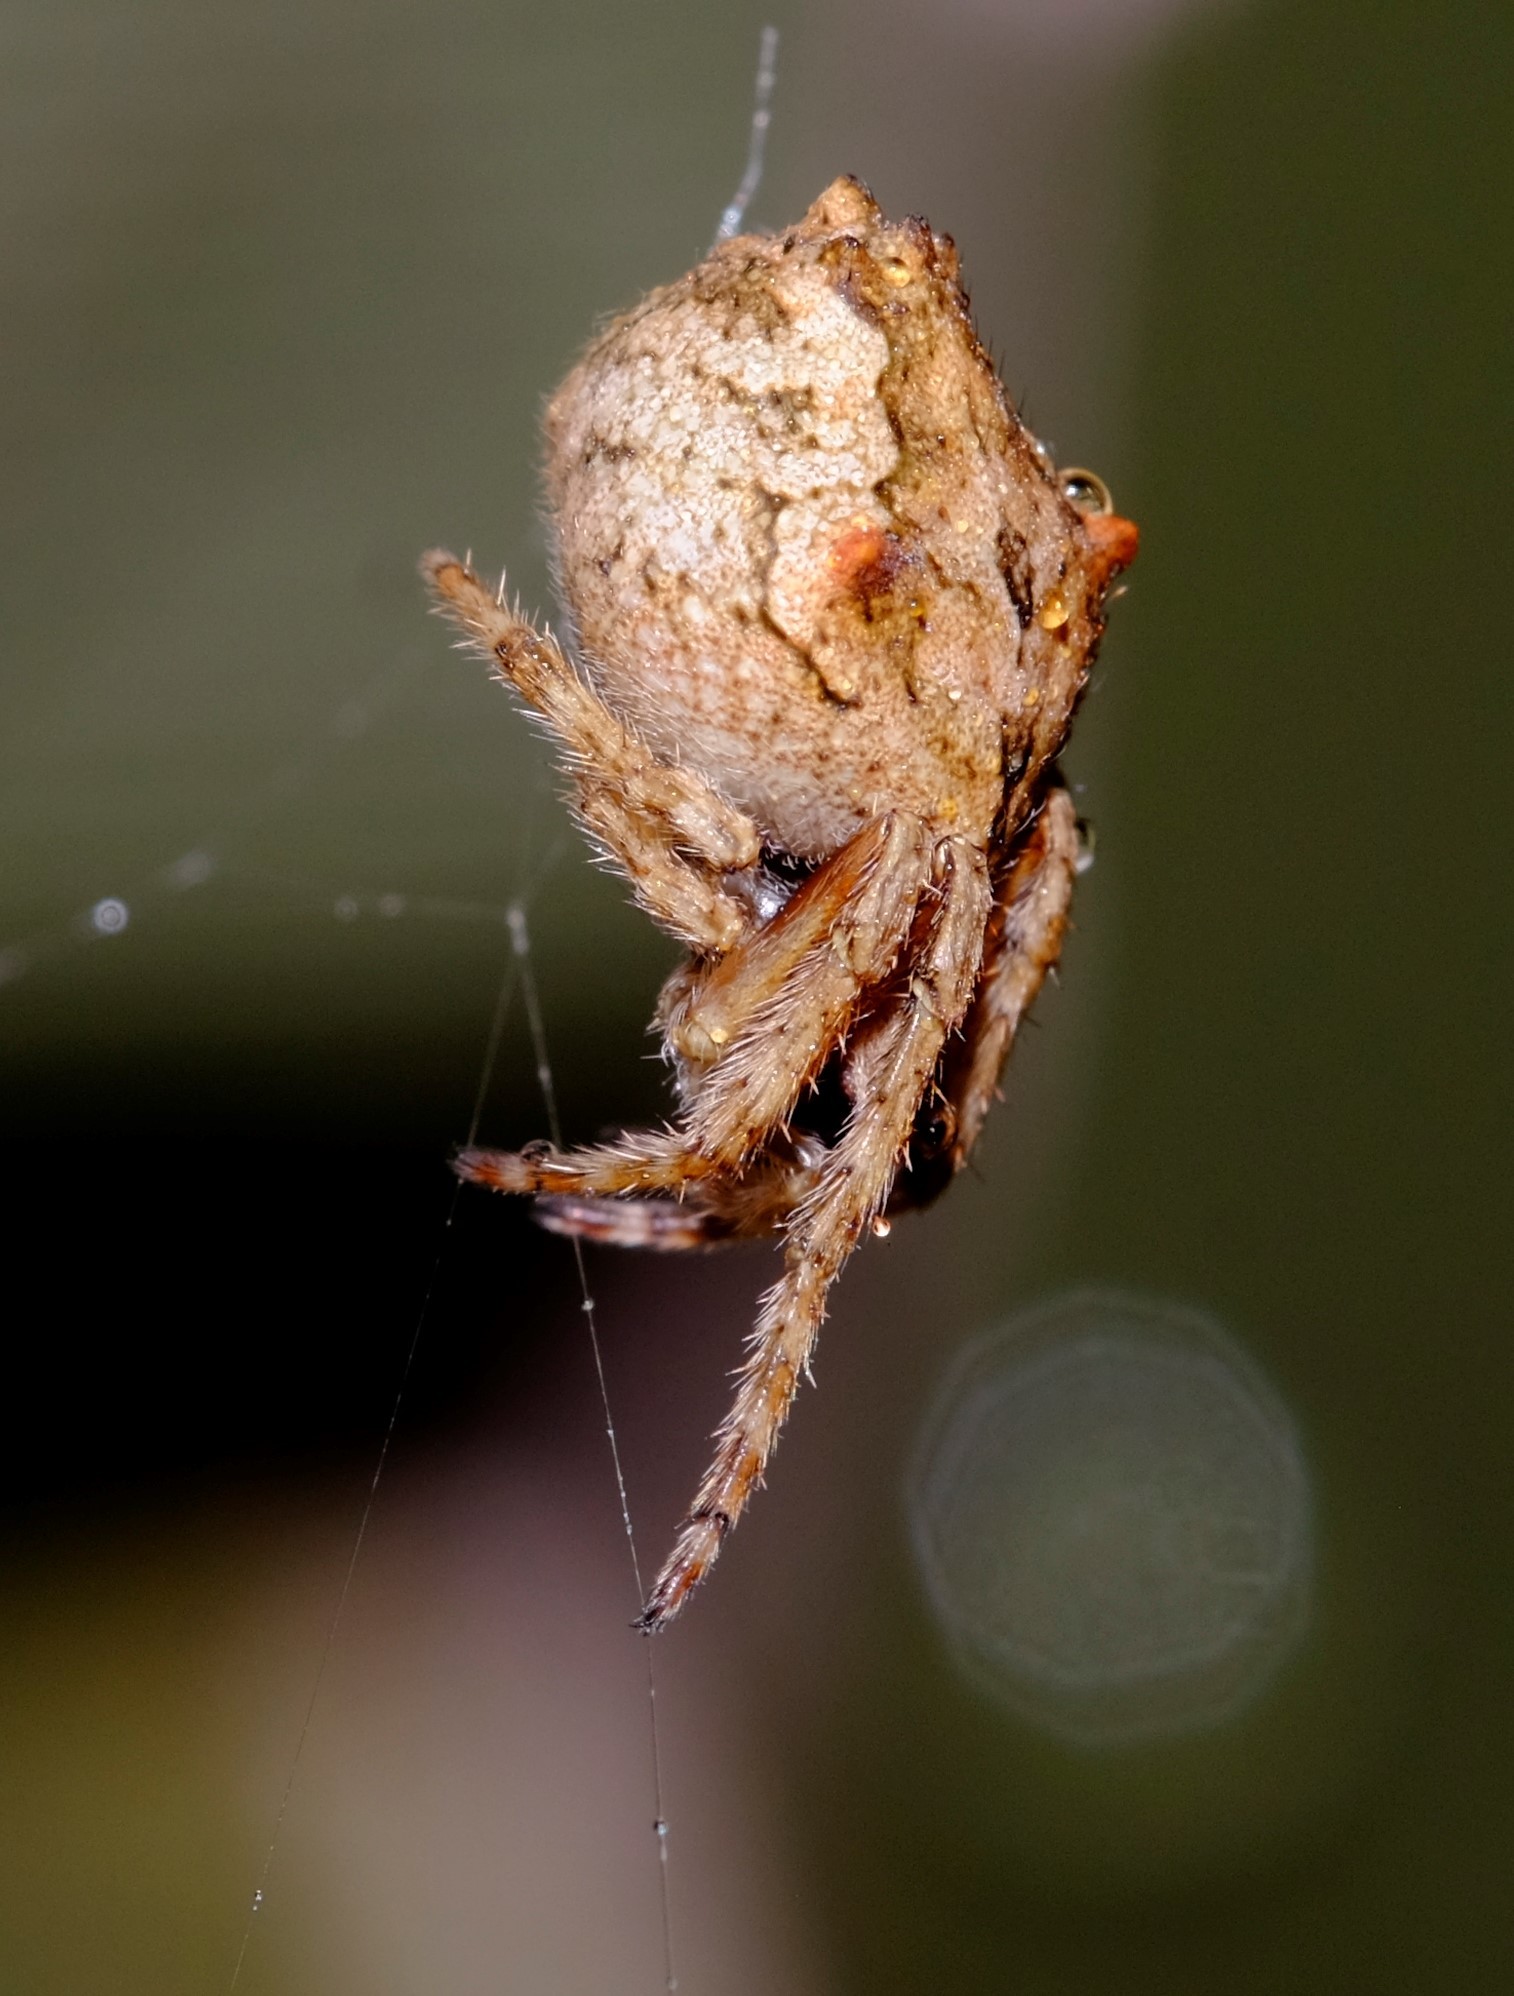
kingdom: Animalia
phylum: Arthropoda
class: Arachnida
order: Araneae
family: Araneidae
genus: Eriophora
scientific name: Eriophora pustulosa
